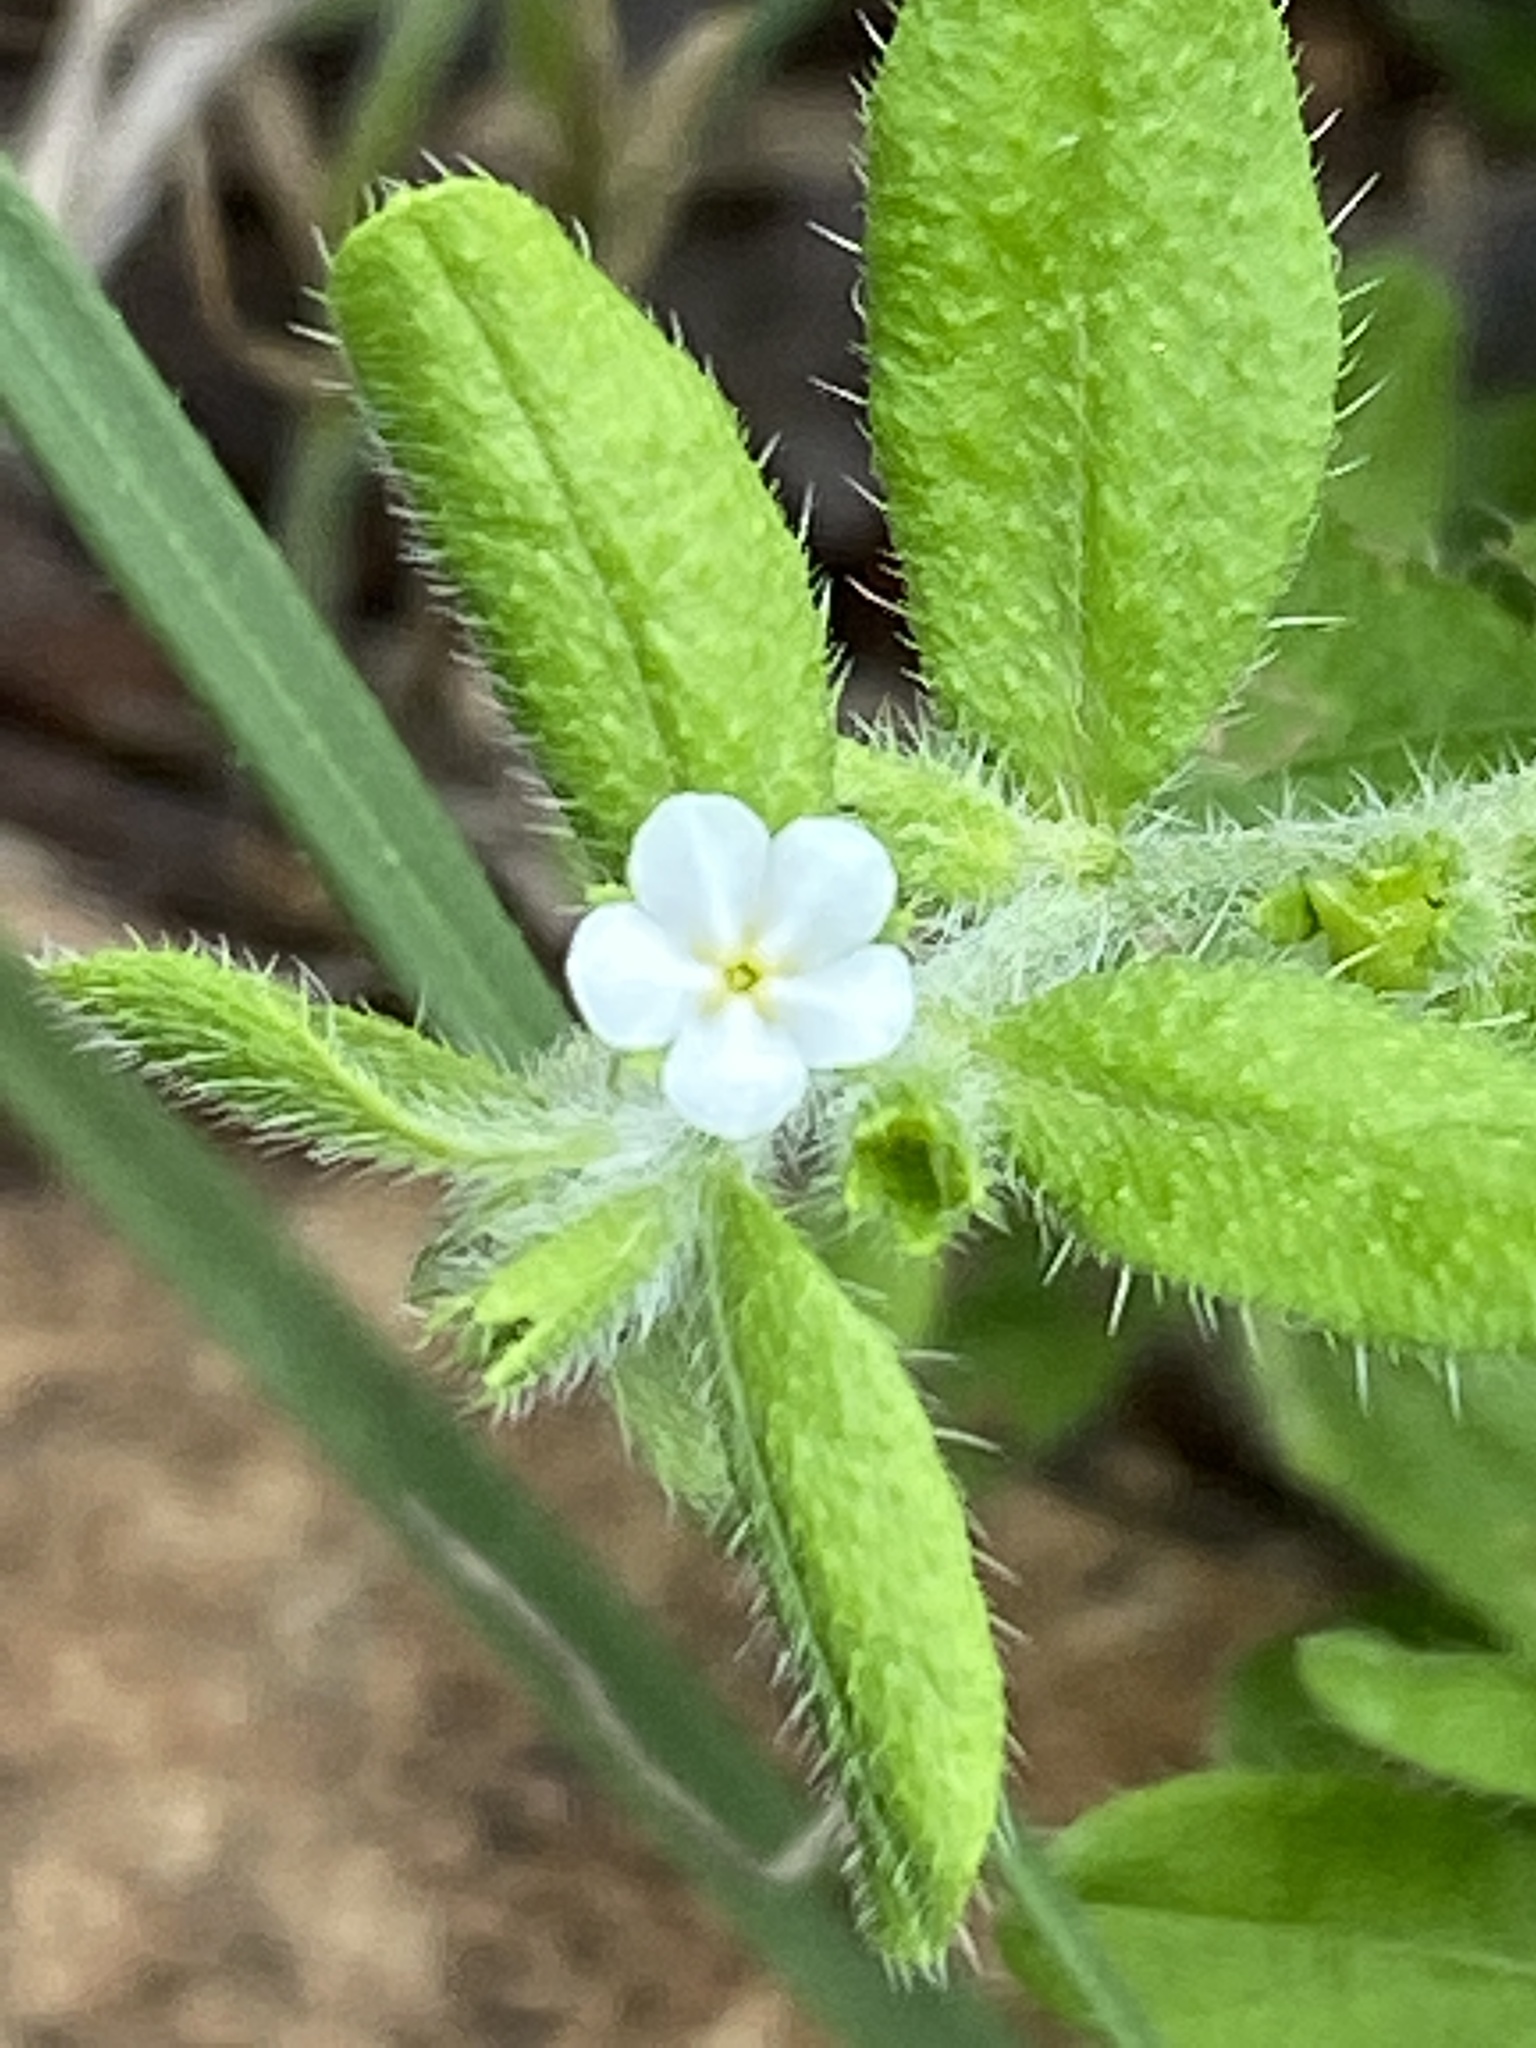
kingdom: Plantae
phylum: Tracheophyta
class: Magnoliopsida
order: Boraginales
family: Boraginaceae
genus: Lithospermum
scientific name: Lithospermum matamorense
